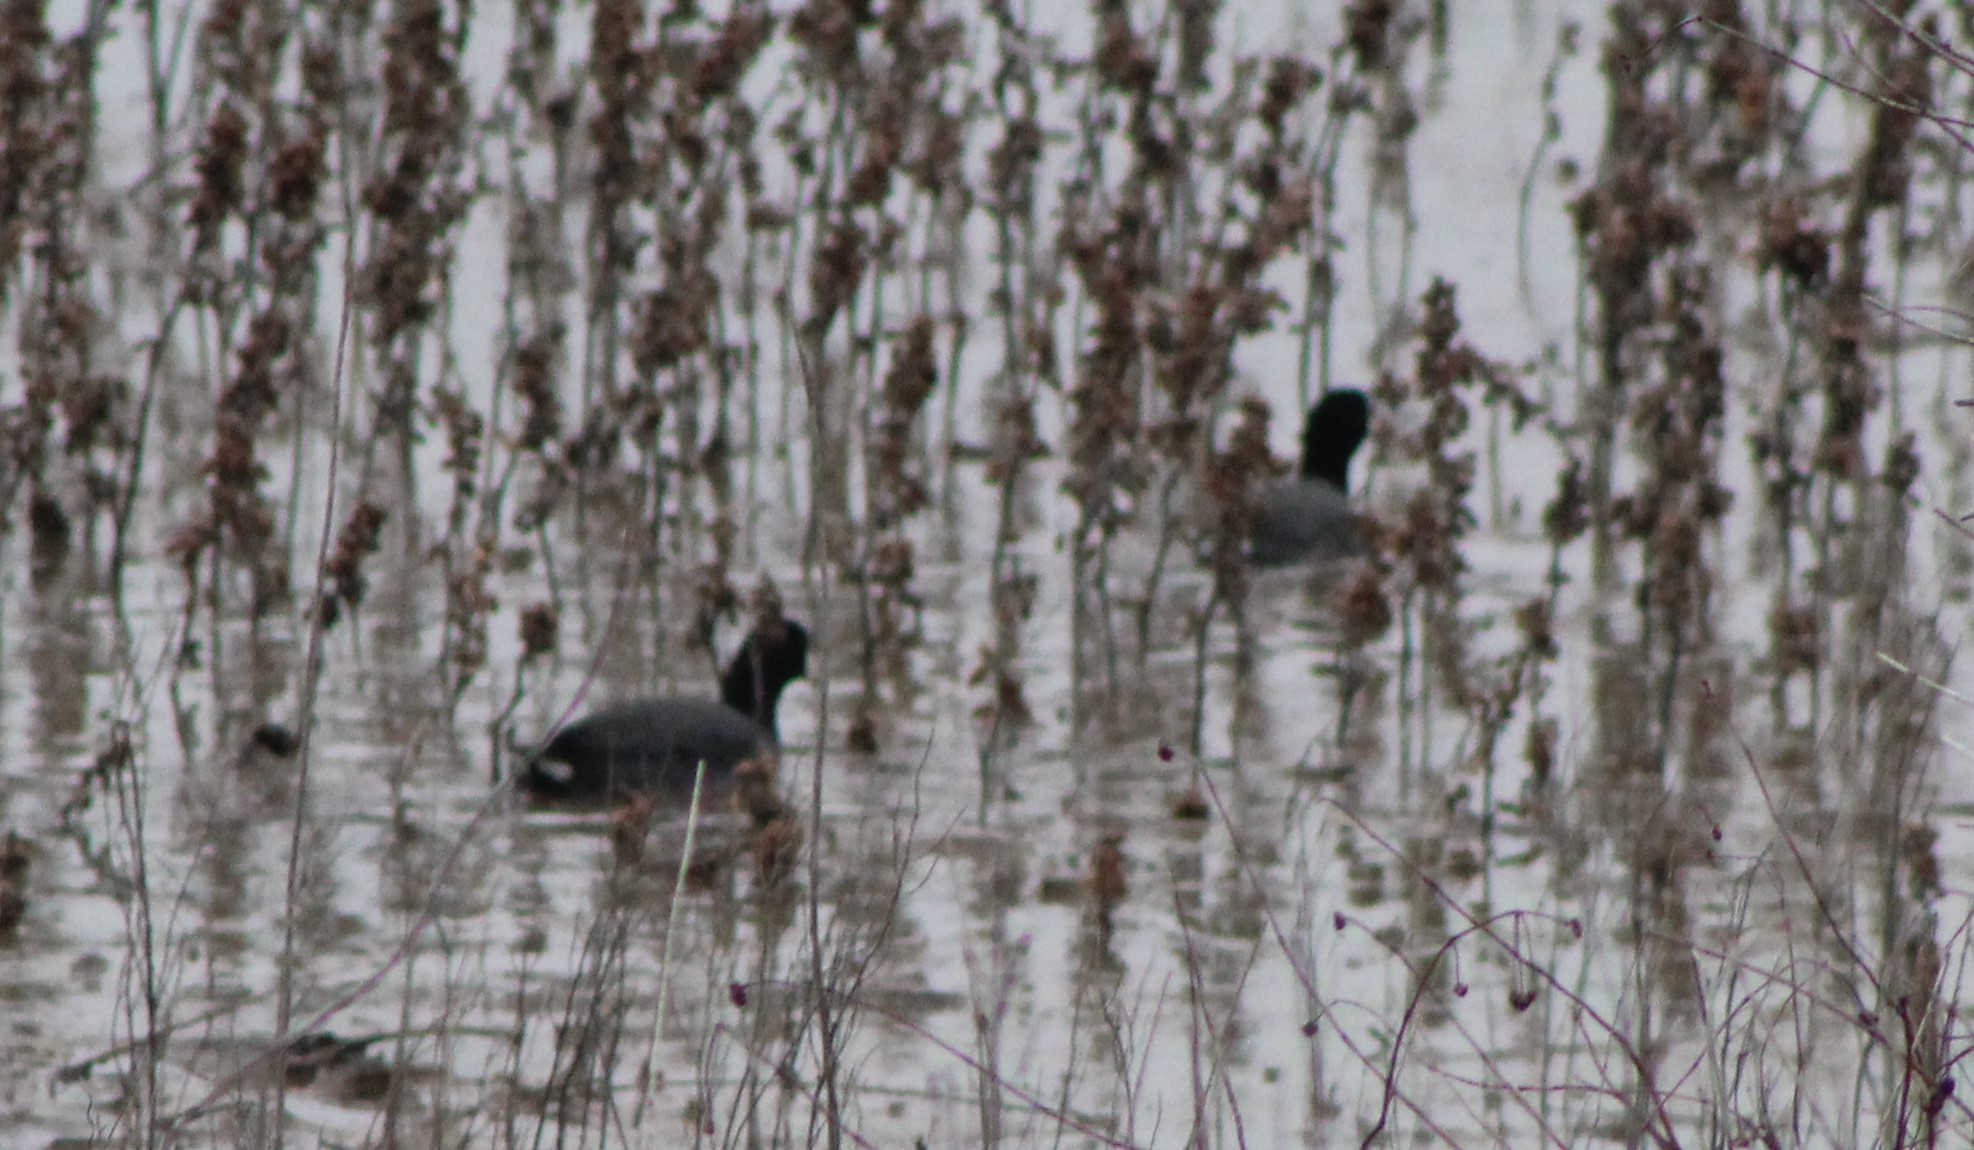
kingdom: Animalia
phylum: Chordata
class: Aves
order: Gruiformes
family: Rallidae
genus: Fulica
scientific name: Fulica americana
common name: American coot
